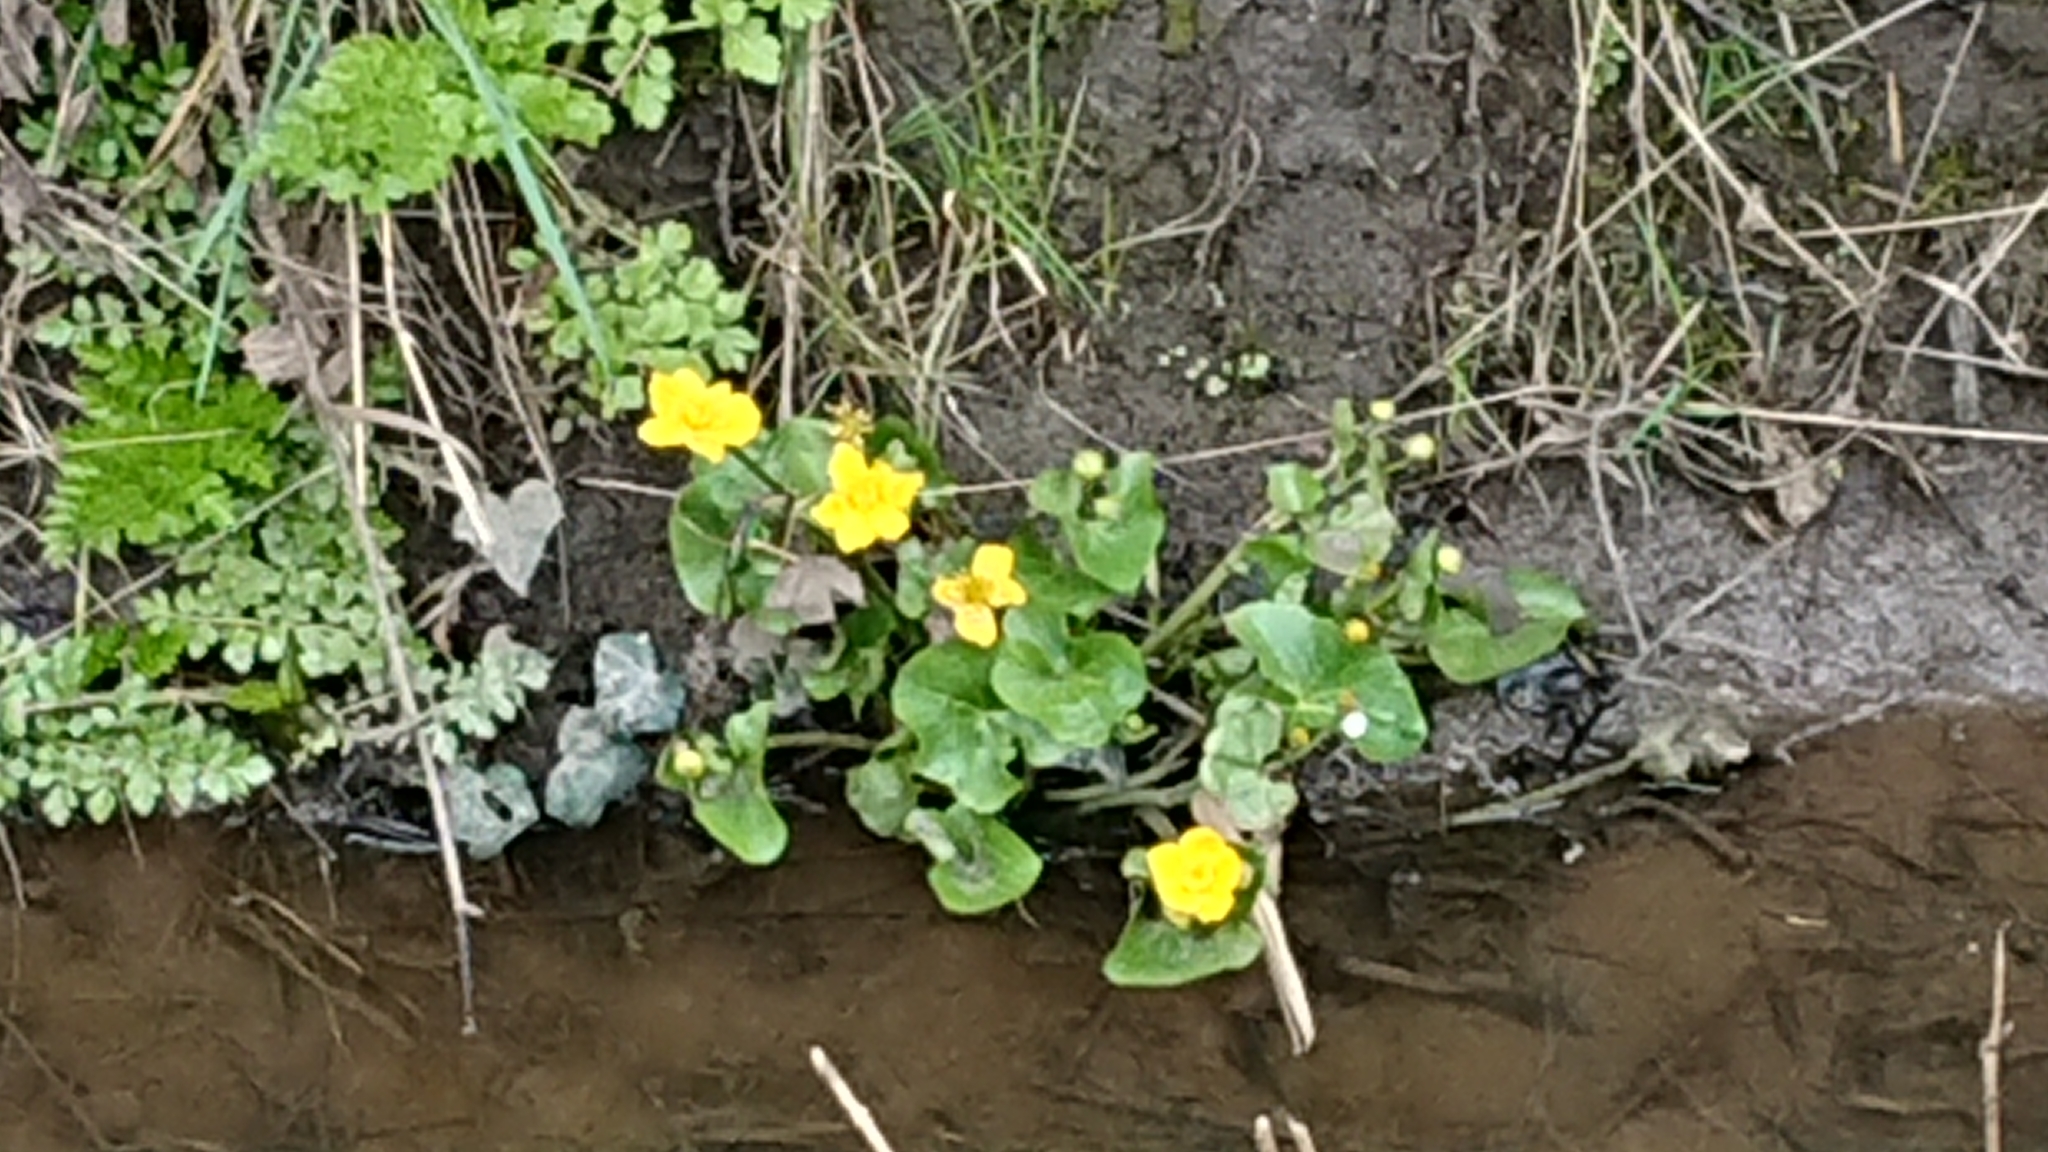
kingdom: Plantae
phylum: Tracheophyta
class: Magnoliopsida
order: Ranunculales
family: Ranunculaceae
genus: Caltha
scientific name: Caltha palustris
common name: Marsh marigold
